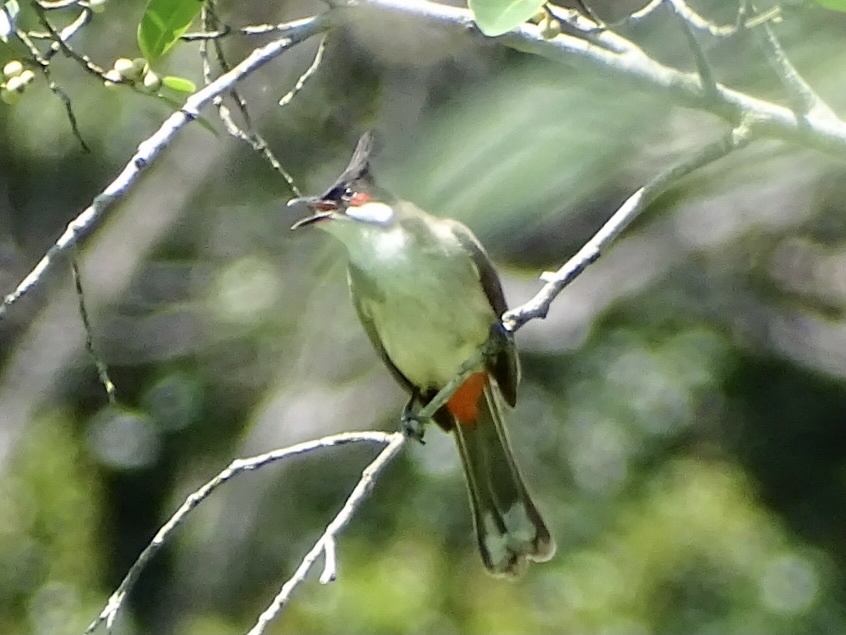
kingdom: Animalia
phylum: Chordata
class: Aves
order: Passeriformes
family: Pycnonotidae
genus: Pycnonotus
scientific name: Pycnonotus jocosus
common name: Red-whiskered bulbul
